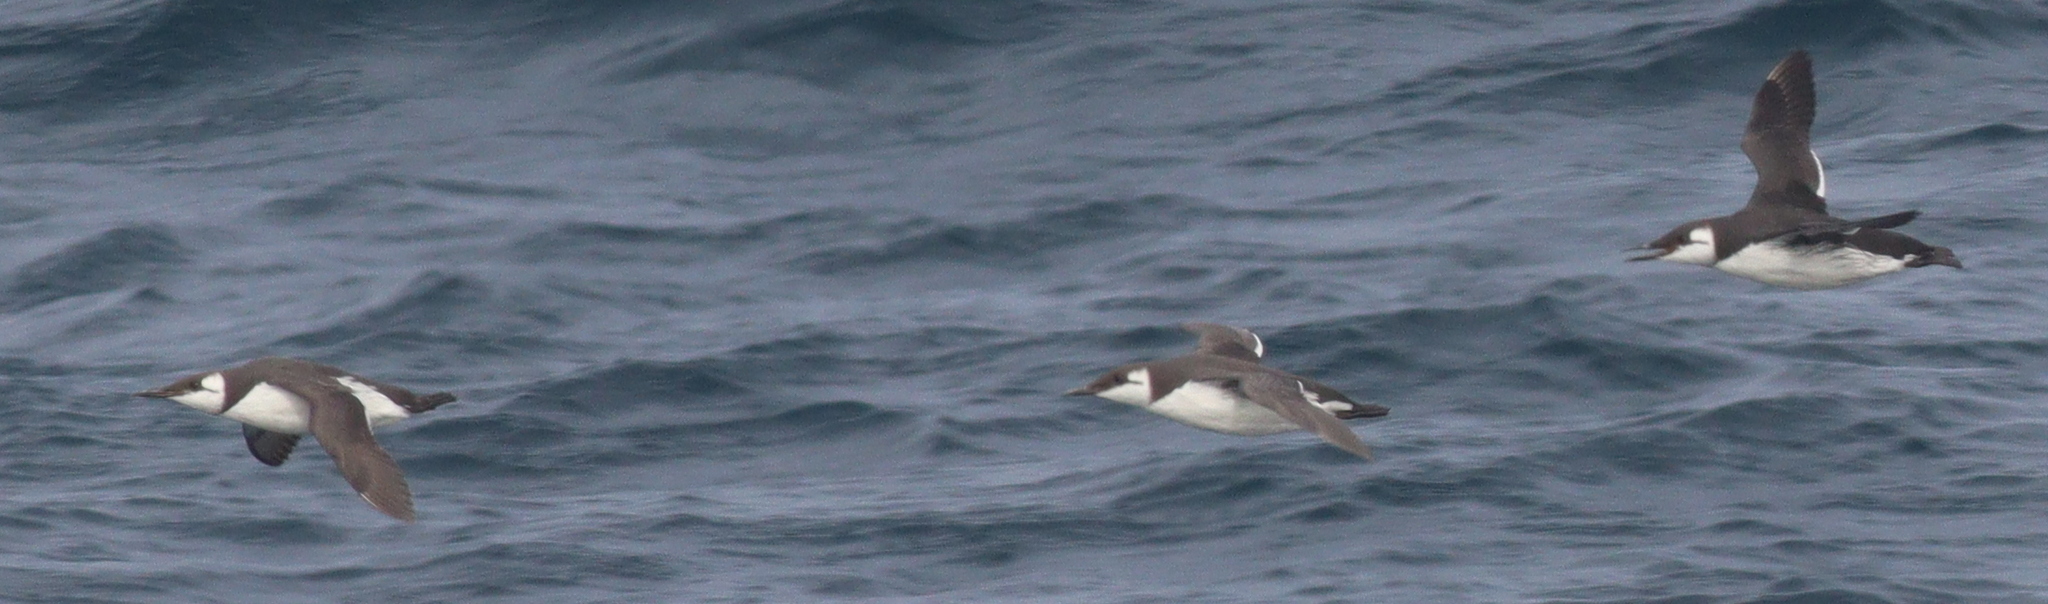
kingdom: Animalia
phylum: Chordata
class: Aves
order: Charadriiformes
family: Alcidae
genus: Uria
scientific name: Uria aalge
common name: Common murre
